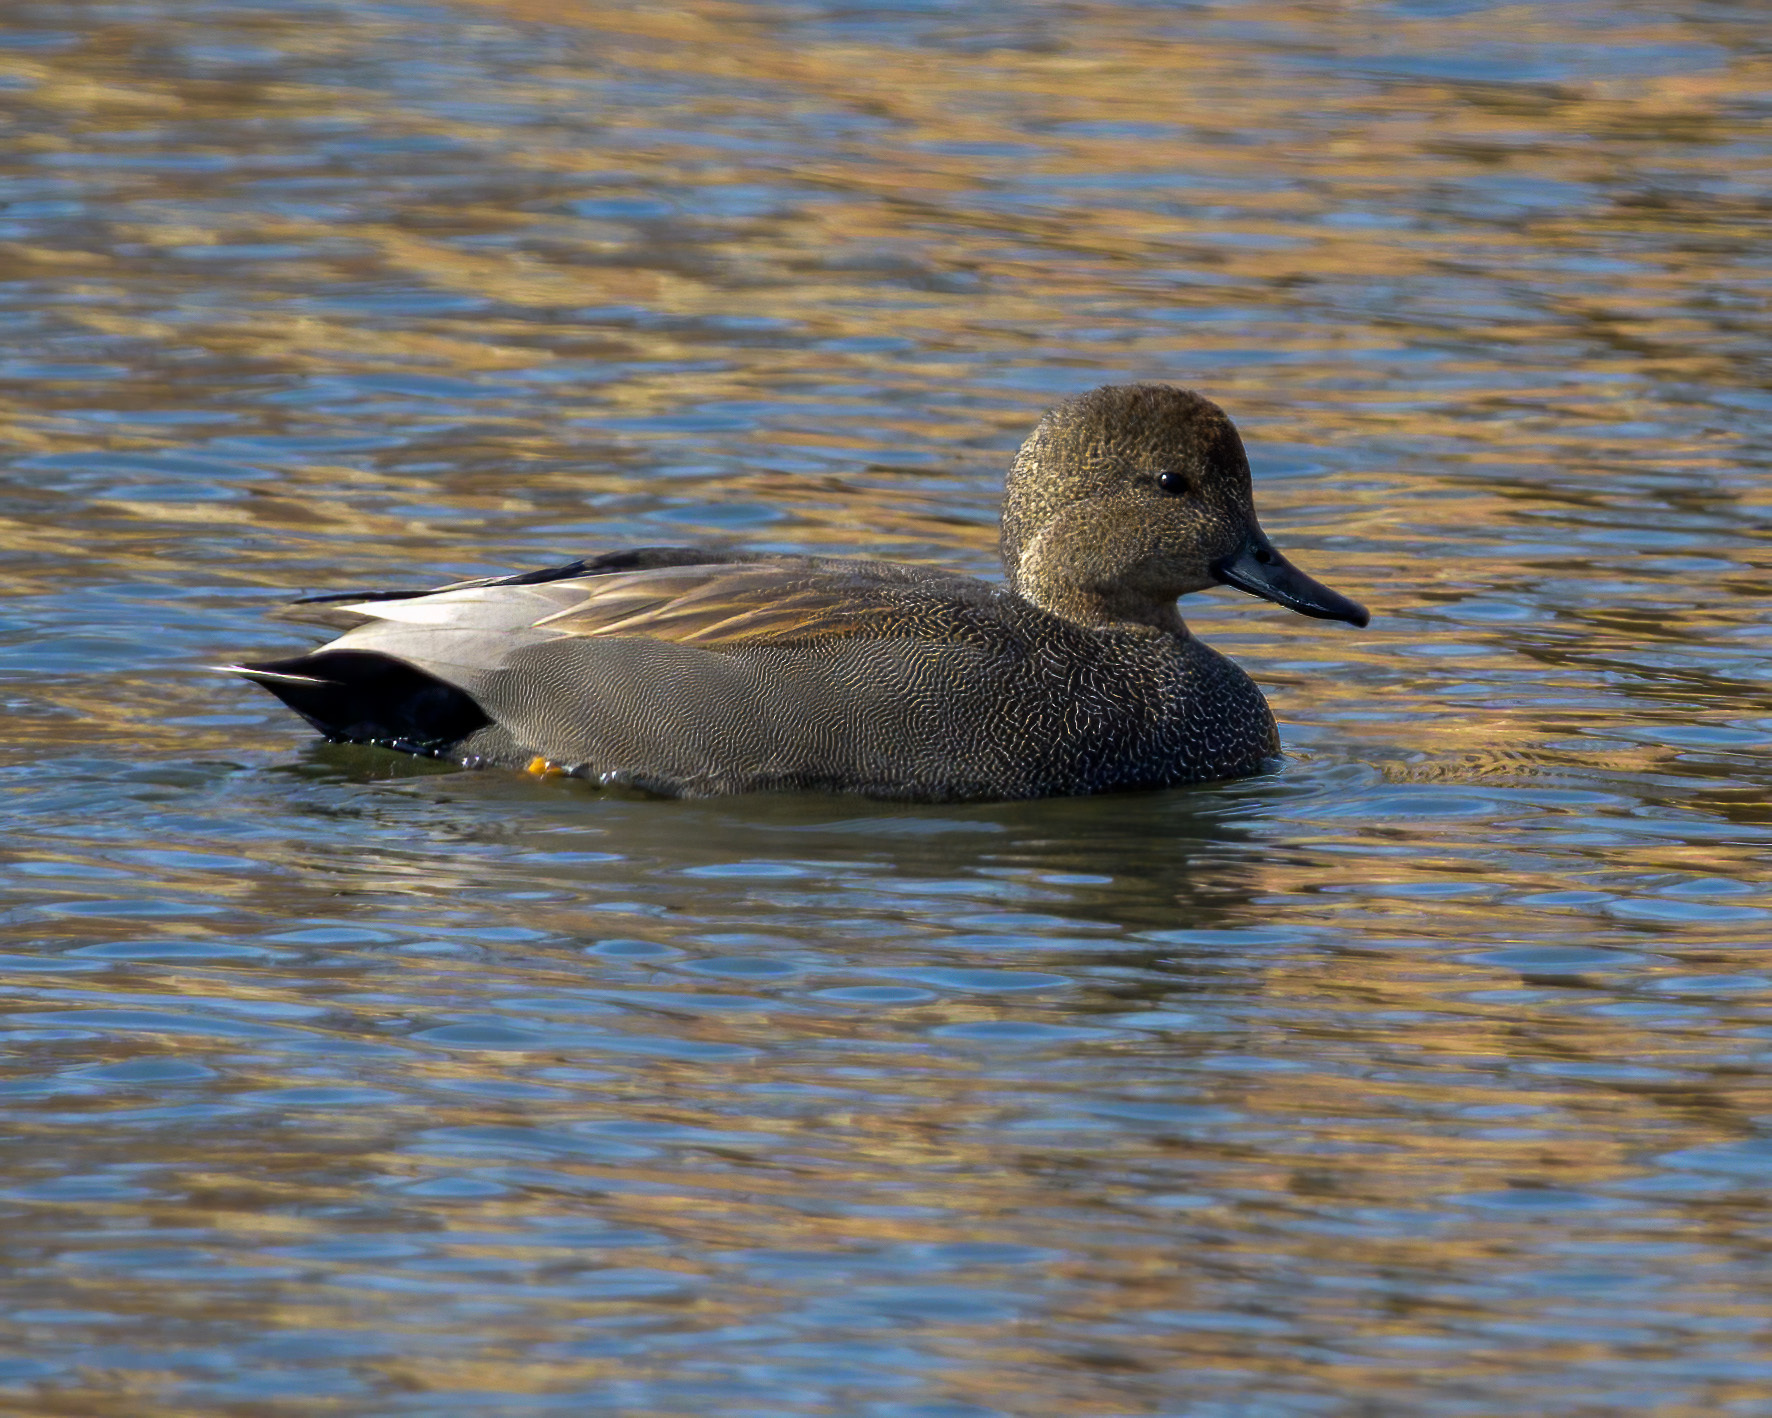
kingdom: Animalia
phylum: Chordata
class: Aves
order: Anseriformes
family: Anatidae
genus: Mareca
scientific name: Mareca strepera
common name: Gadwall
